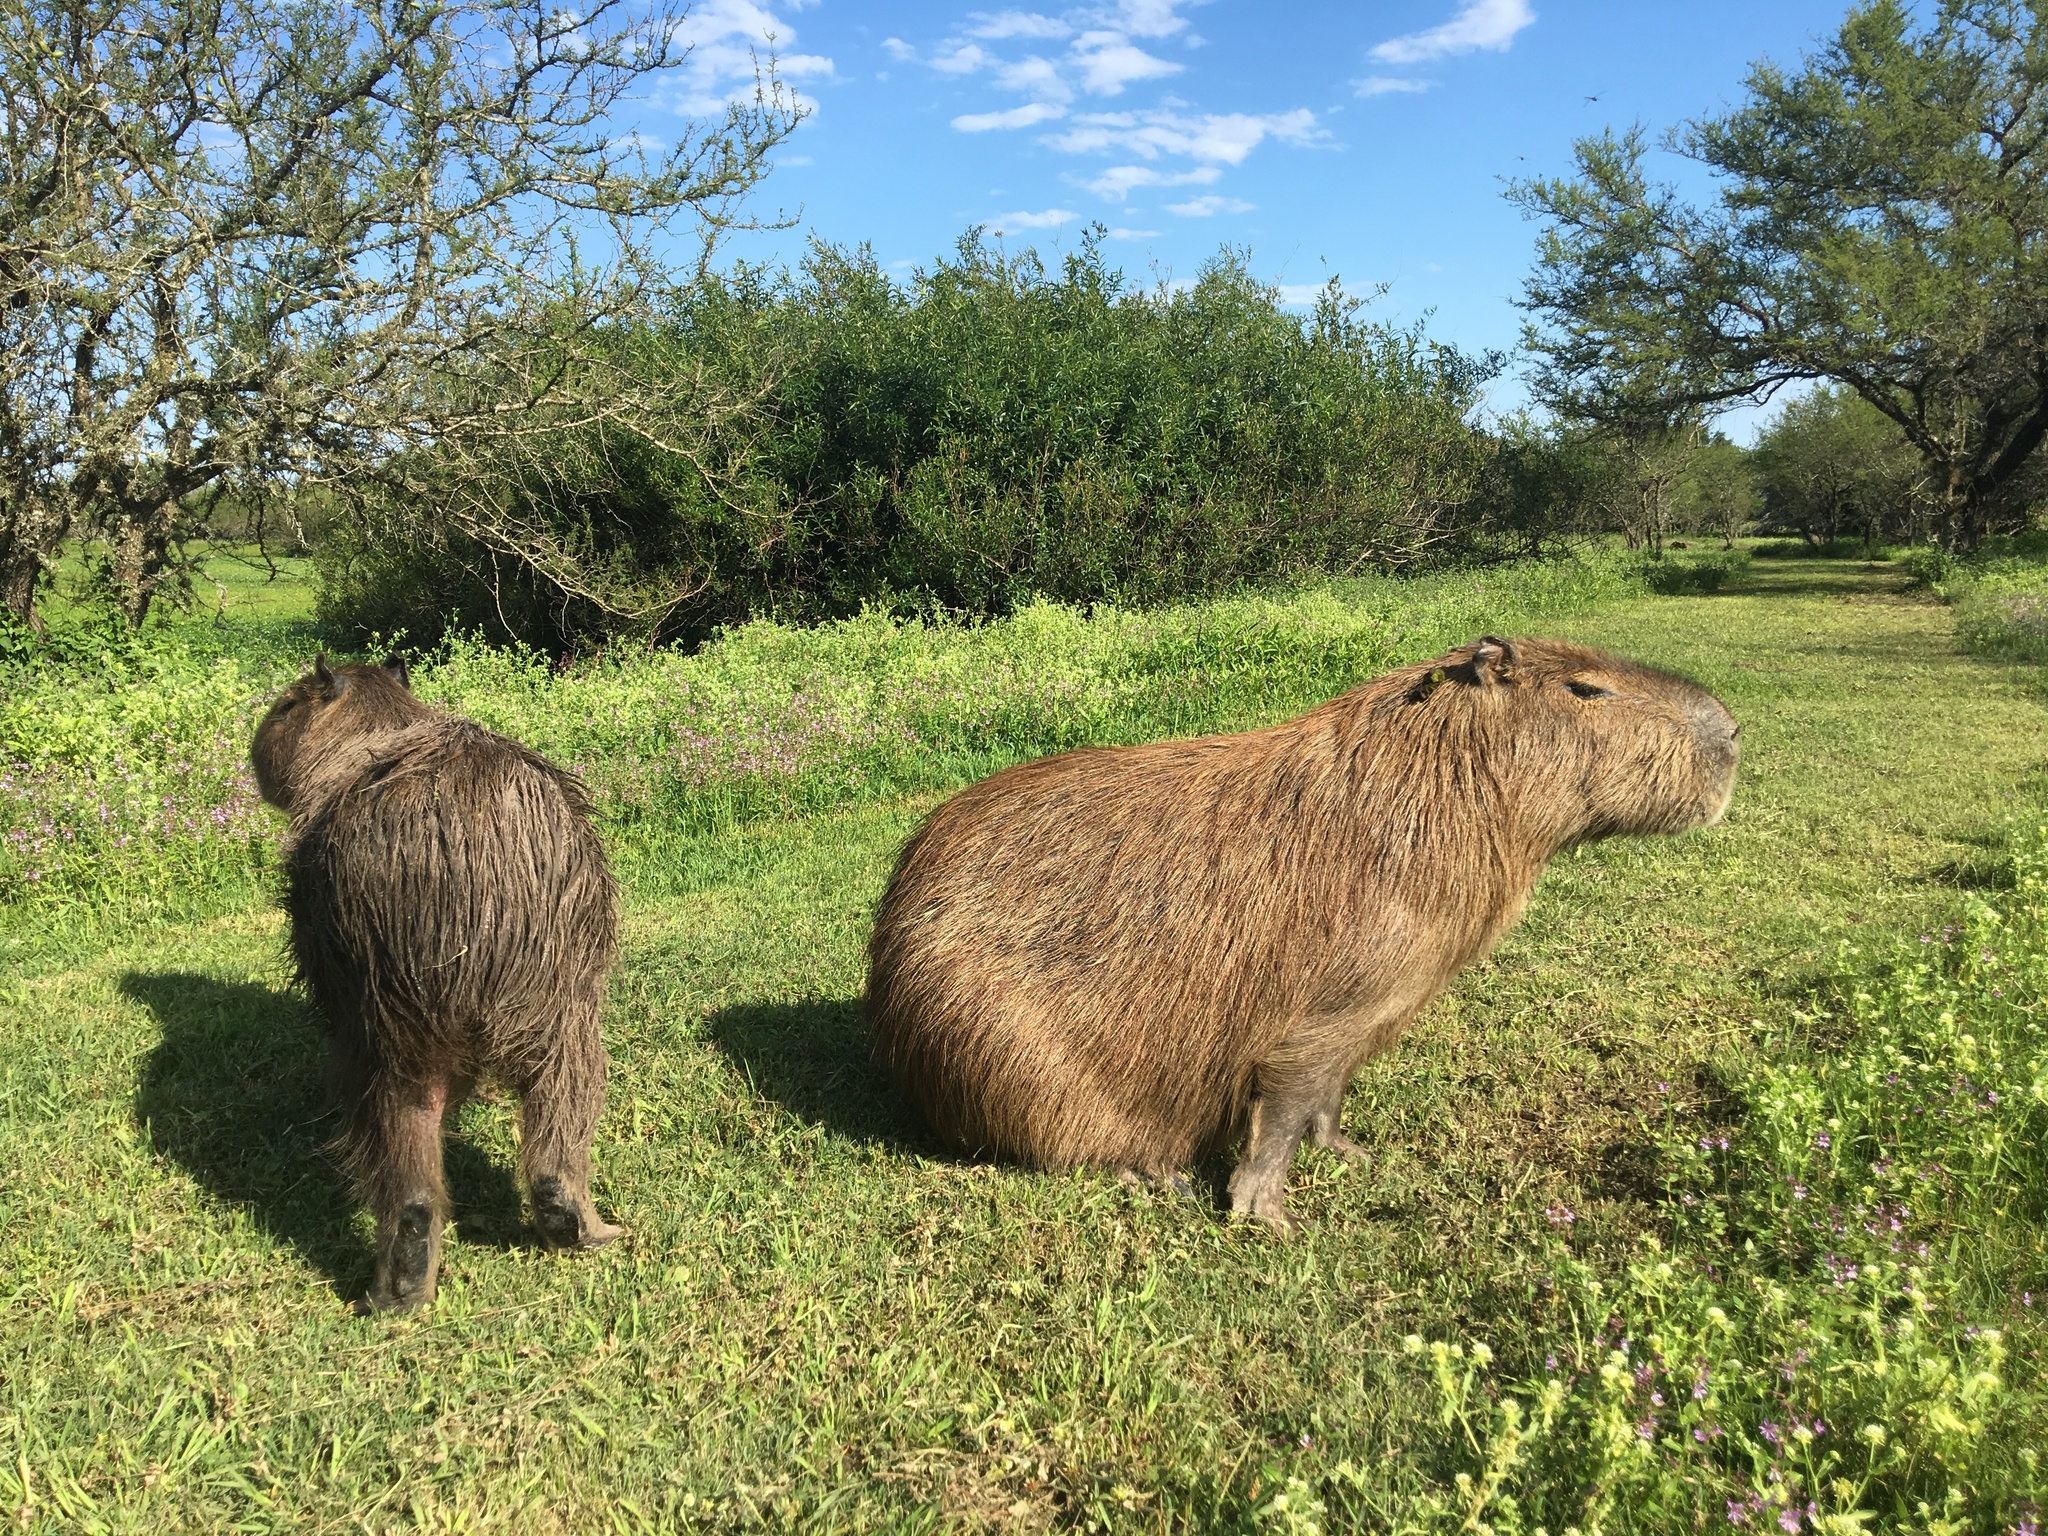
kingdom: Animalia
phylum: Chordata
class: Mammalia
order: Rodentia
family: Caviidae
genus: Hydrochoerus
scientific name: Hydrochoerus hydrochaeris
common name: Capybara
